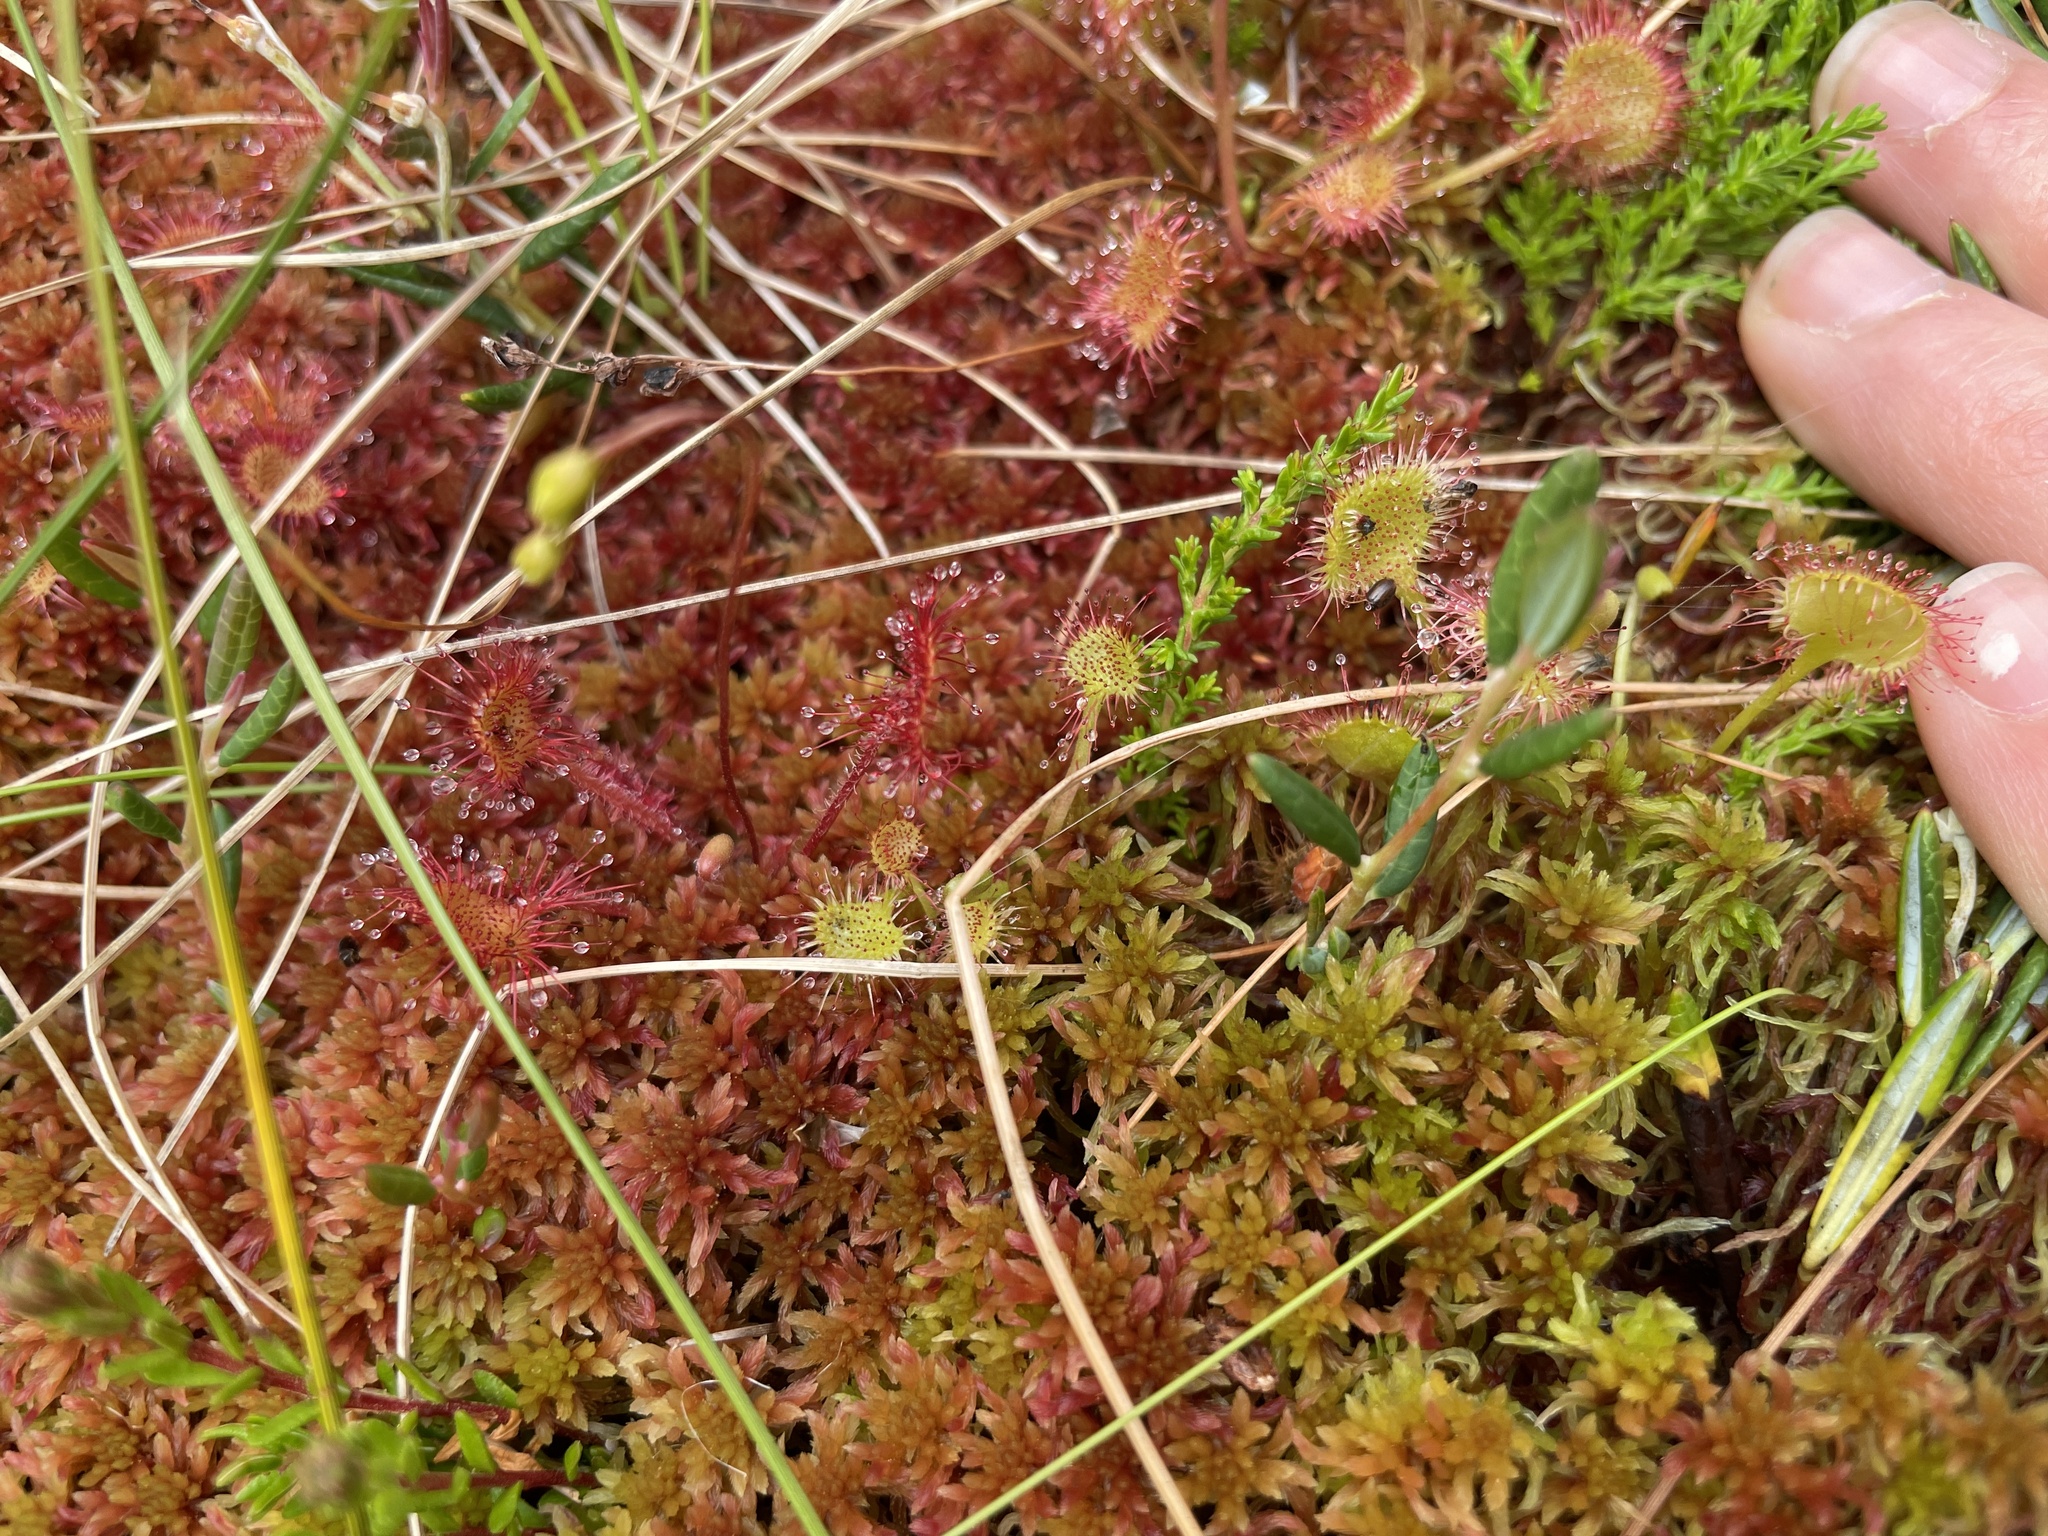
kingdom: Plantae
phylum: Tracheophyta
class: Magnoliopsida
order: Caryophyllales
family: Droseraceae
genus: Drosera
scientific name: Drosera rotundifolia
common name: Round-leaved sundew
